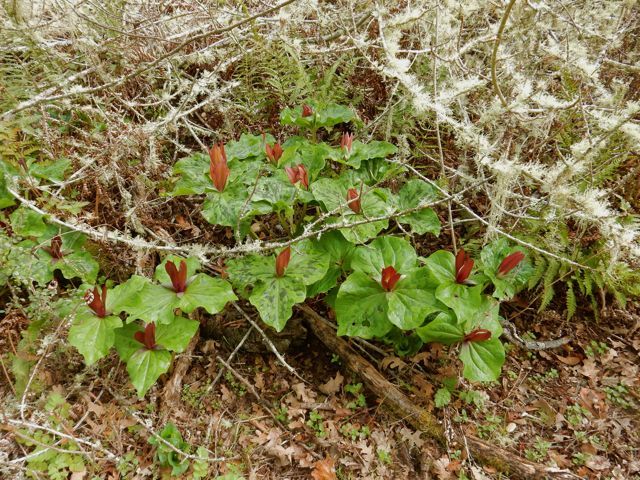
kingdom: Plantae
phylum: Tracheophyta
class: Liliopsida
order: Liliales
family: Melanthiaceae
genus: Trillium
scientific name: Trillium chloropetalum
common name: Giant trillium
